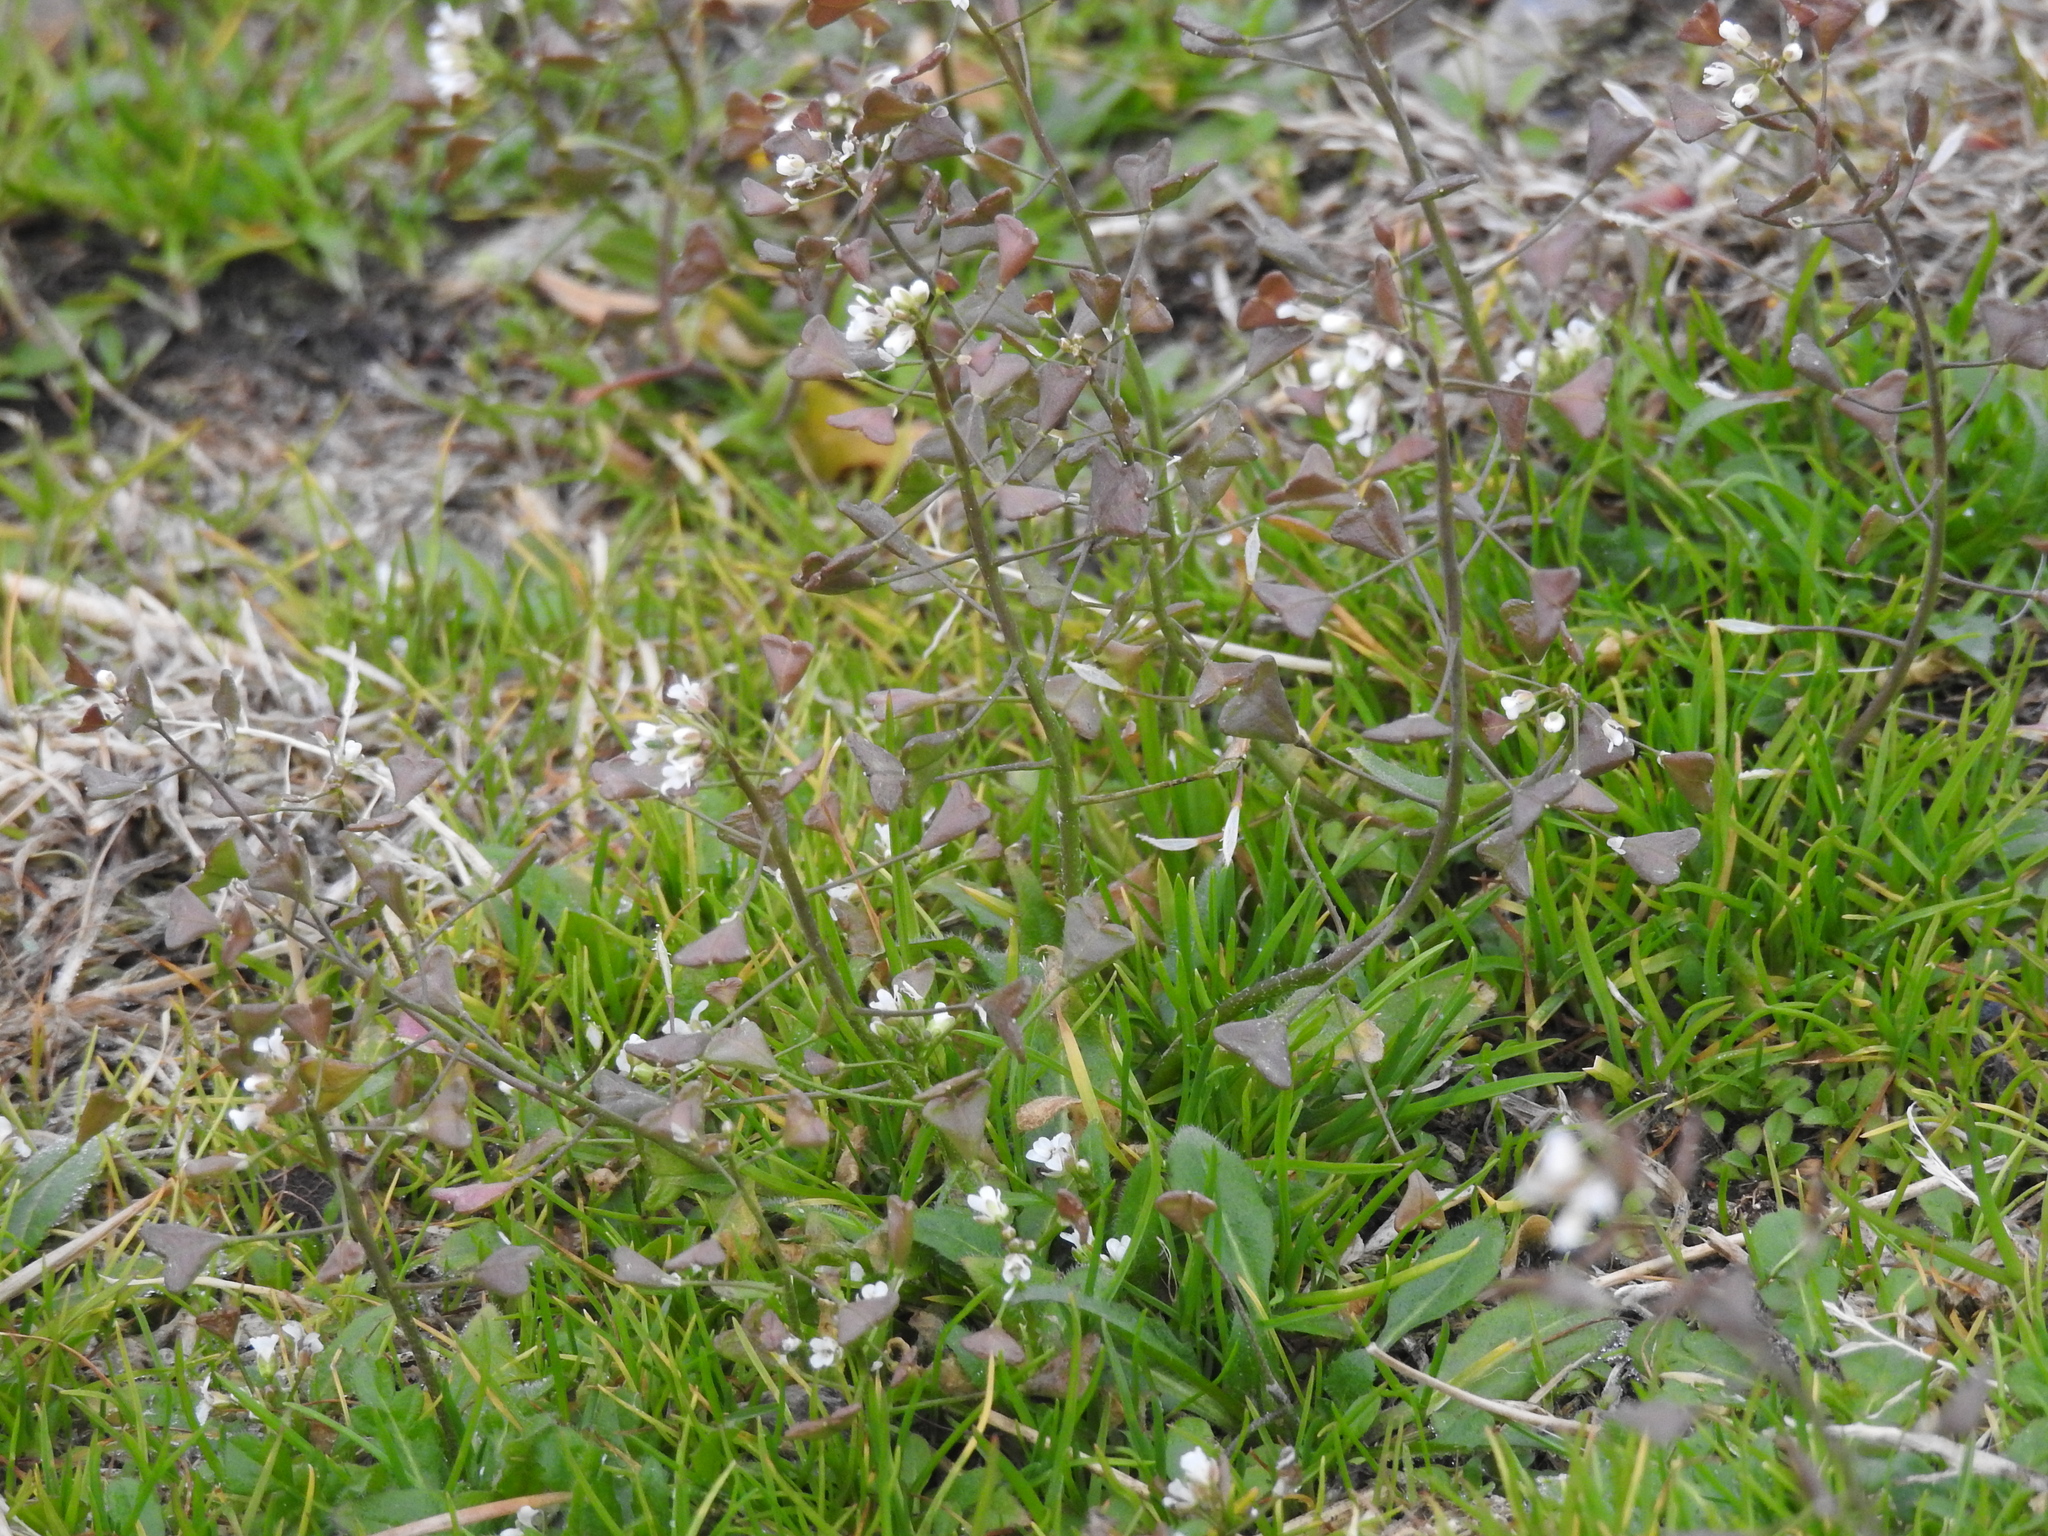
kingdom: Plantae
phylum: Tracheophyta
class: Magnoliopsida
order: Brassicales
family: Brassicaceae
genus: Capsella
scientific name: Capsella bursa-pastoris
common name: Shepherd's purse
